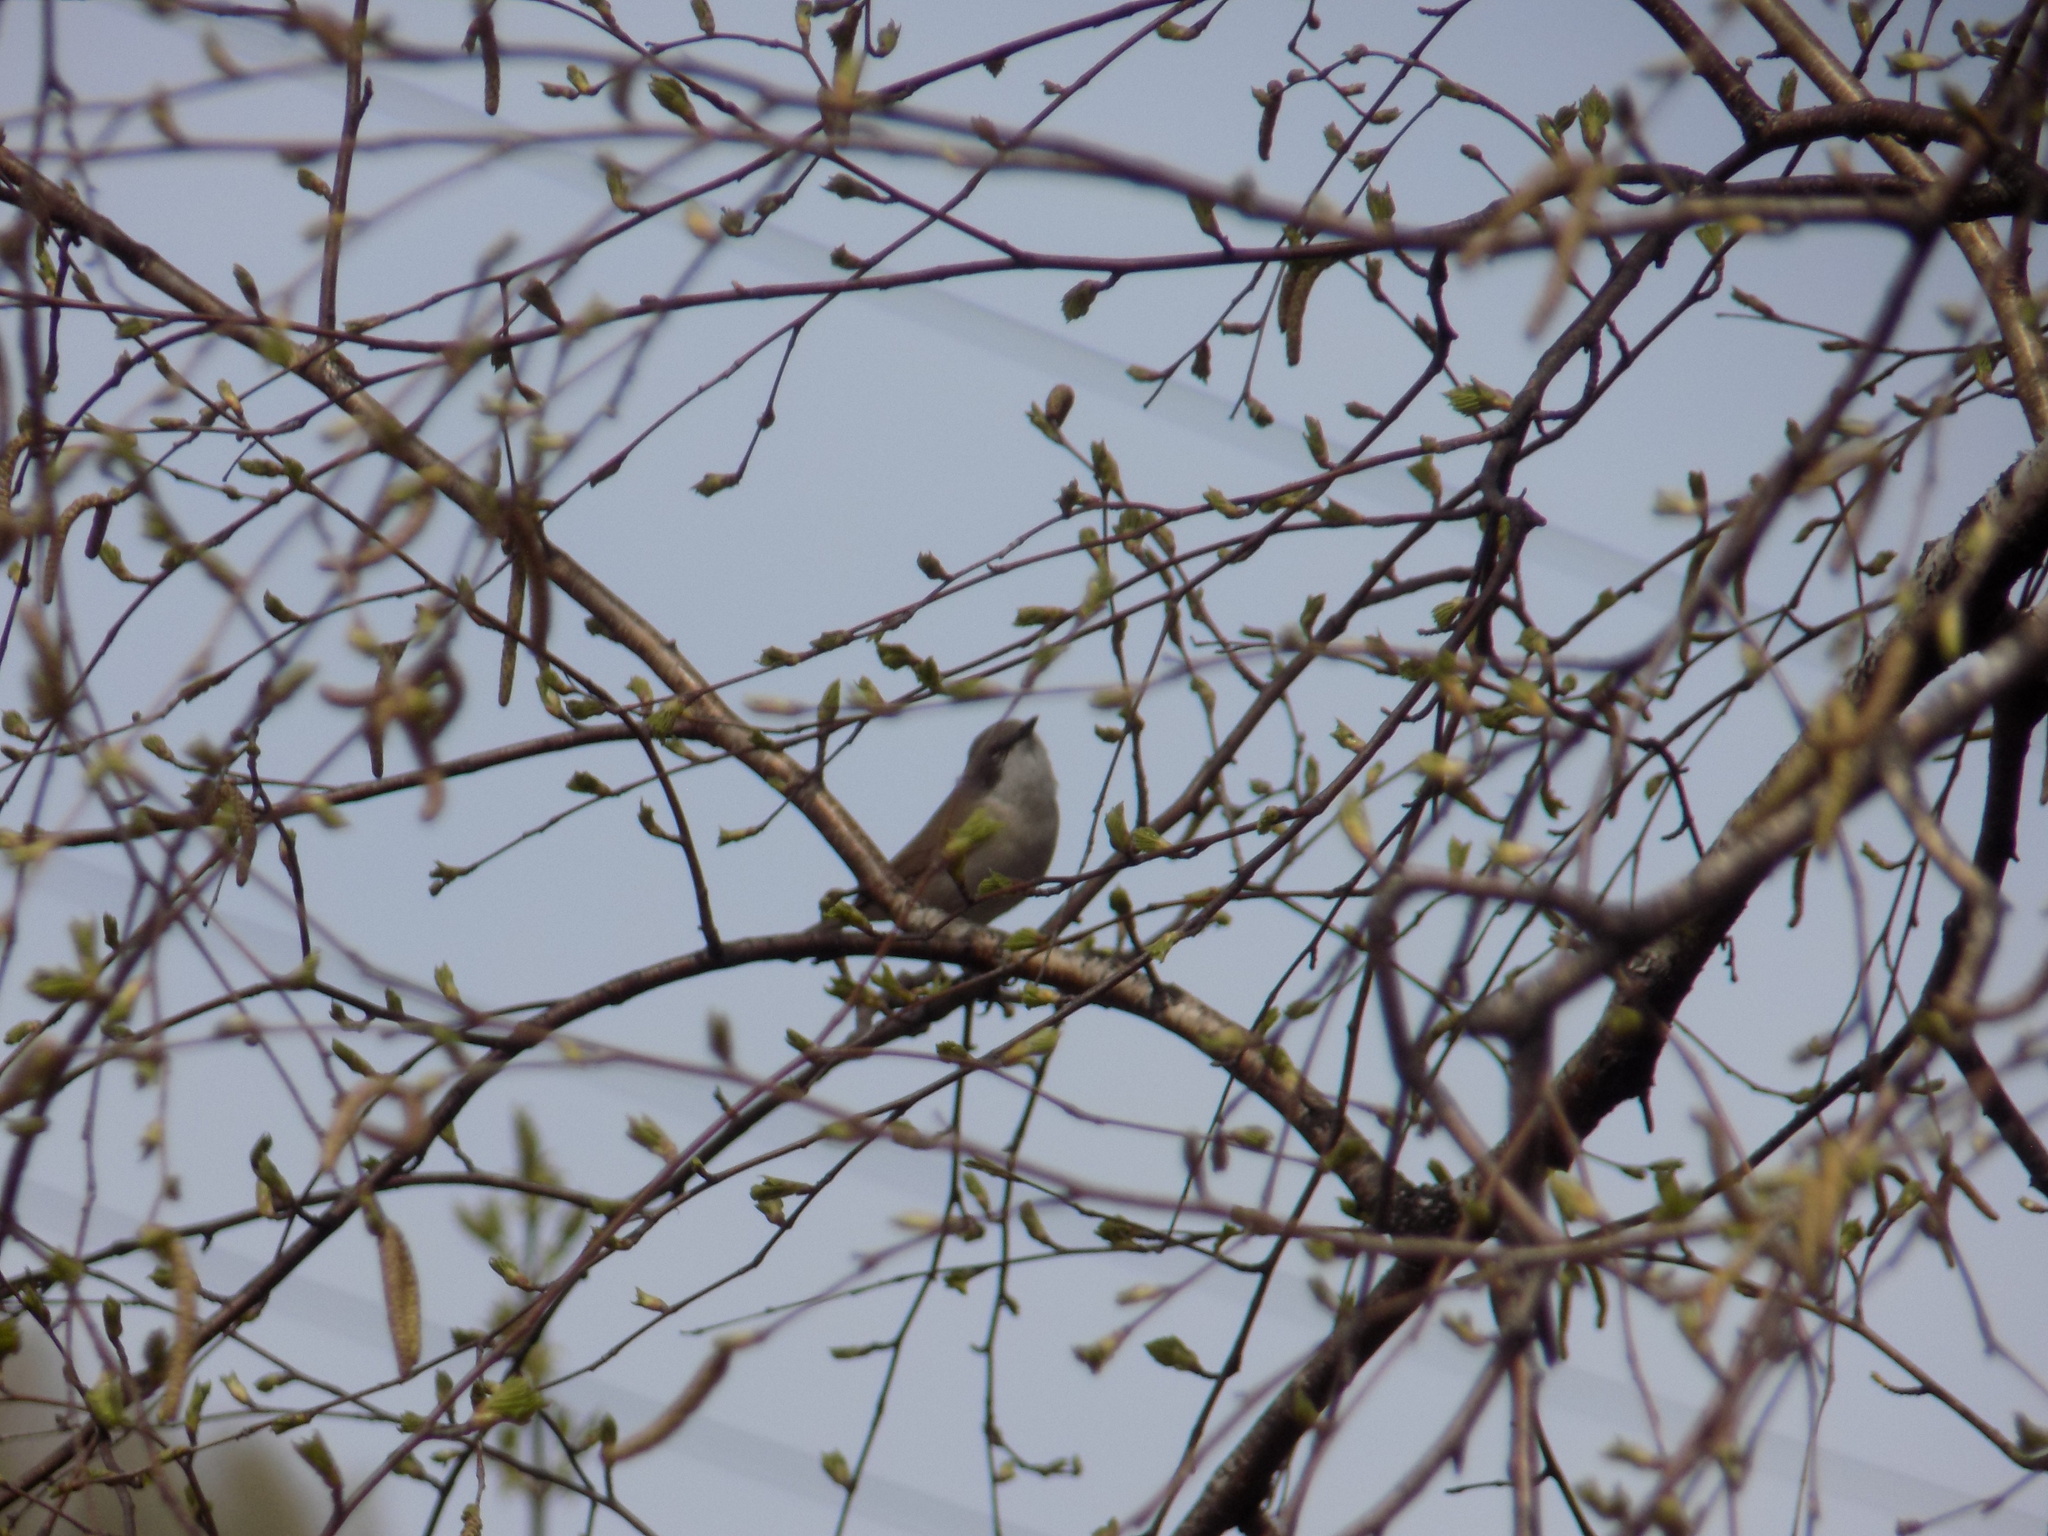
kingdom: Animalia
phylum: Chordata
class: Aves
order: Passeriformes
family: Sylviidae
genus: Sylvia
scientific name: Sylvia curruca
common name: Lesser whitethroat
